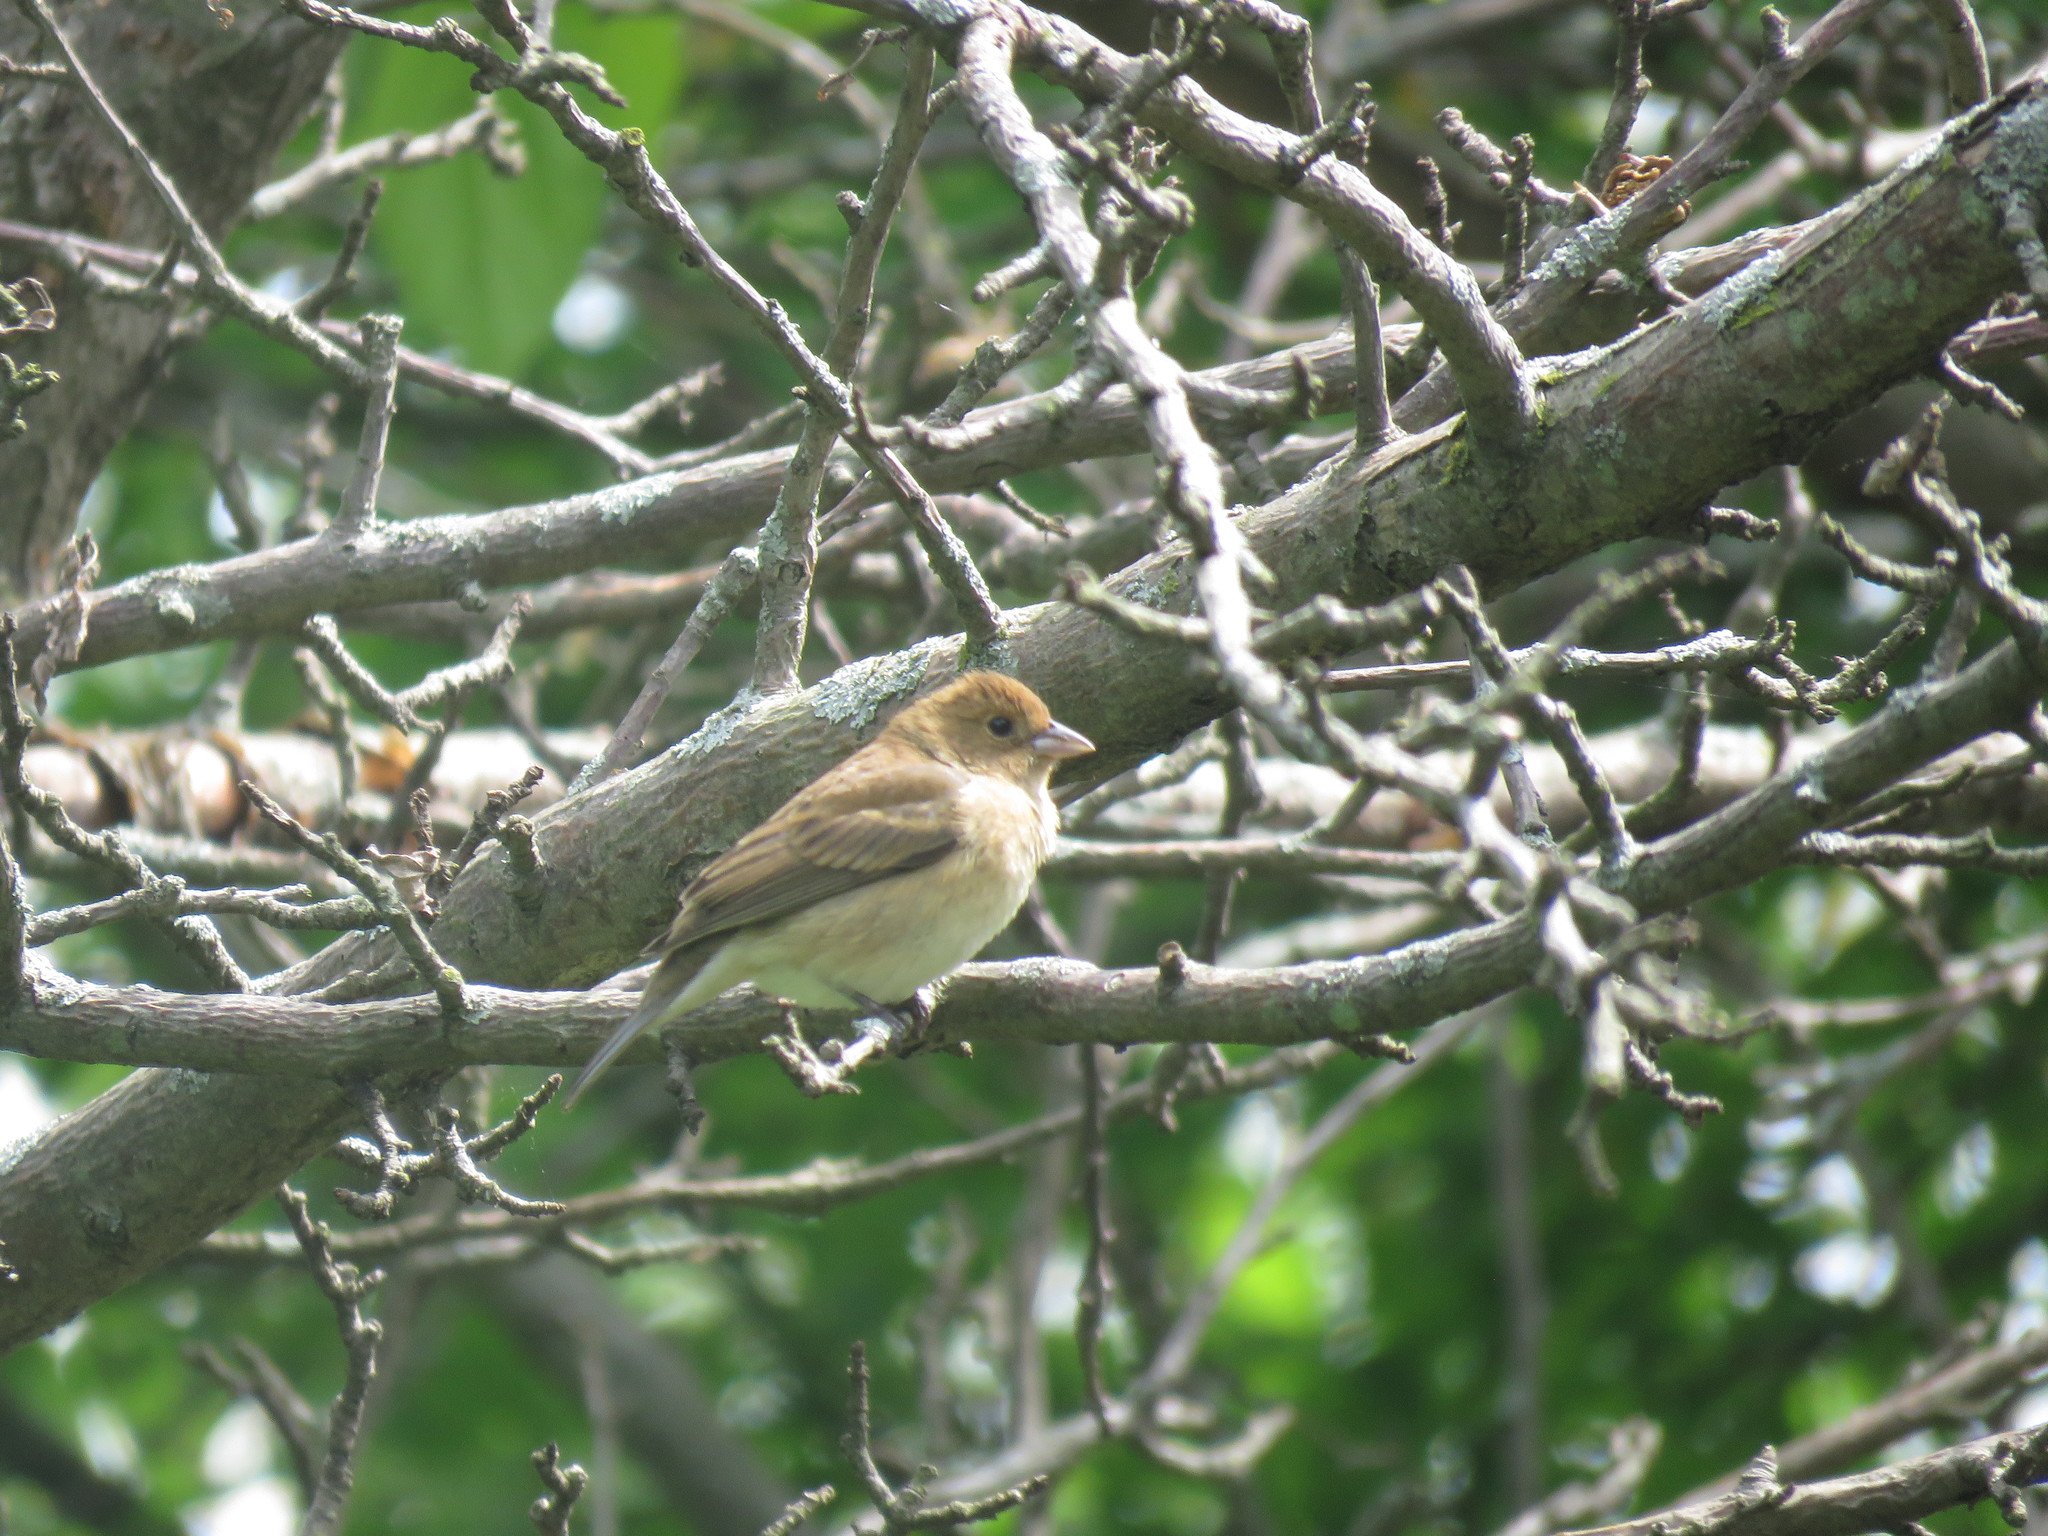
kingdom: Animalia
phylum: Chordata
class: Aves
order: Passeriformes
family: Cardinalidae
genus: Passerina
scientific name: Passerina cyanea
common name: Indigo bunting
